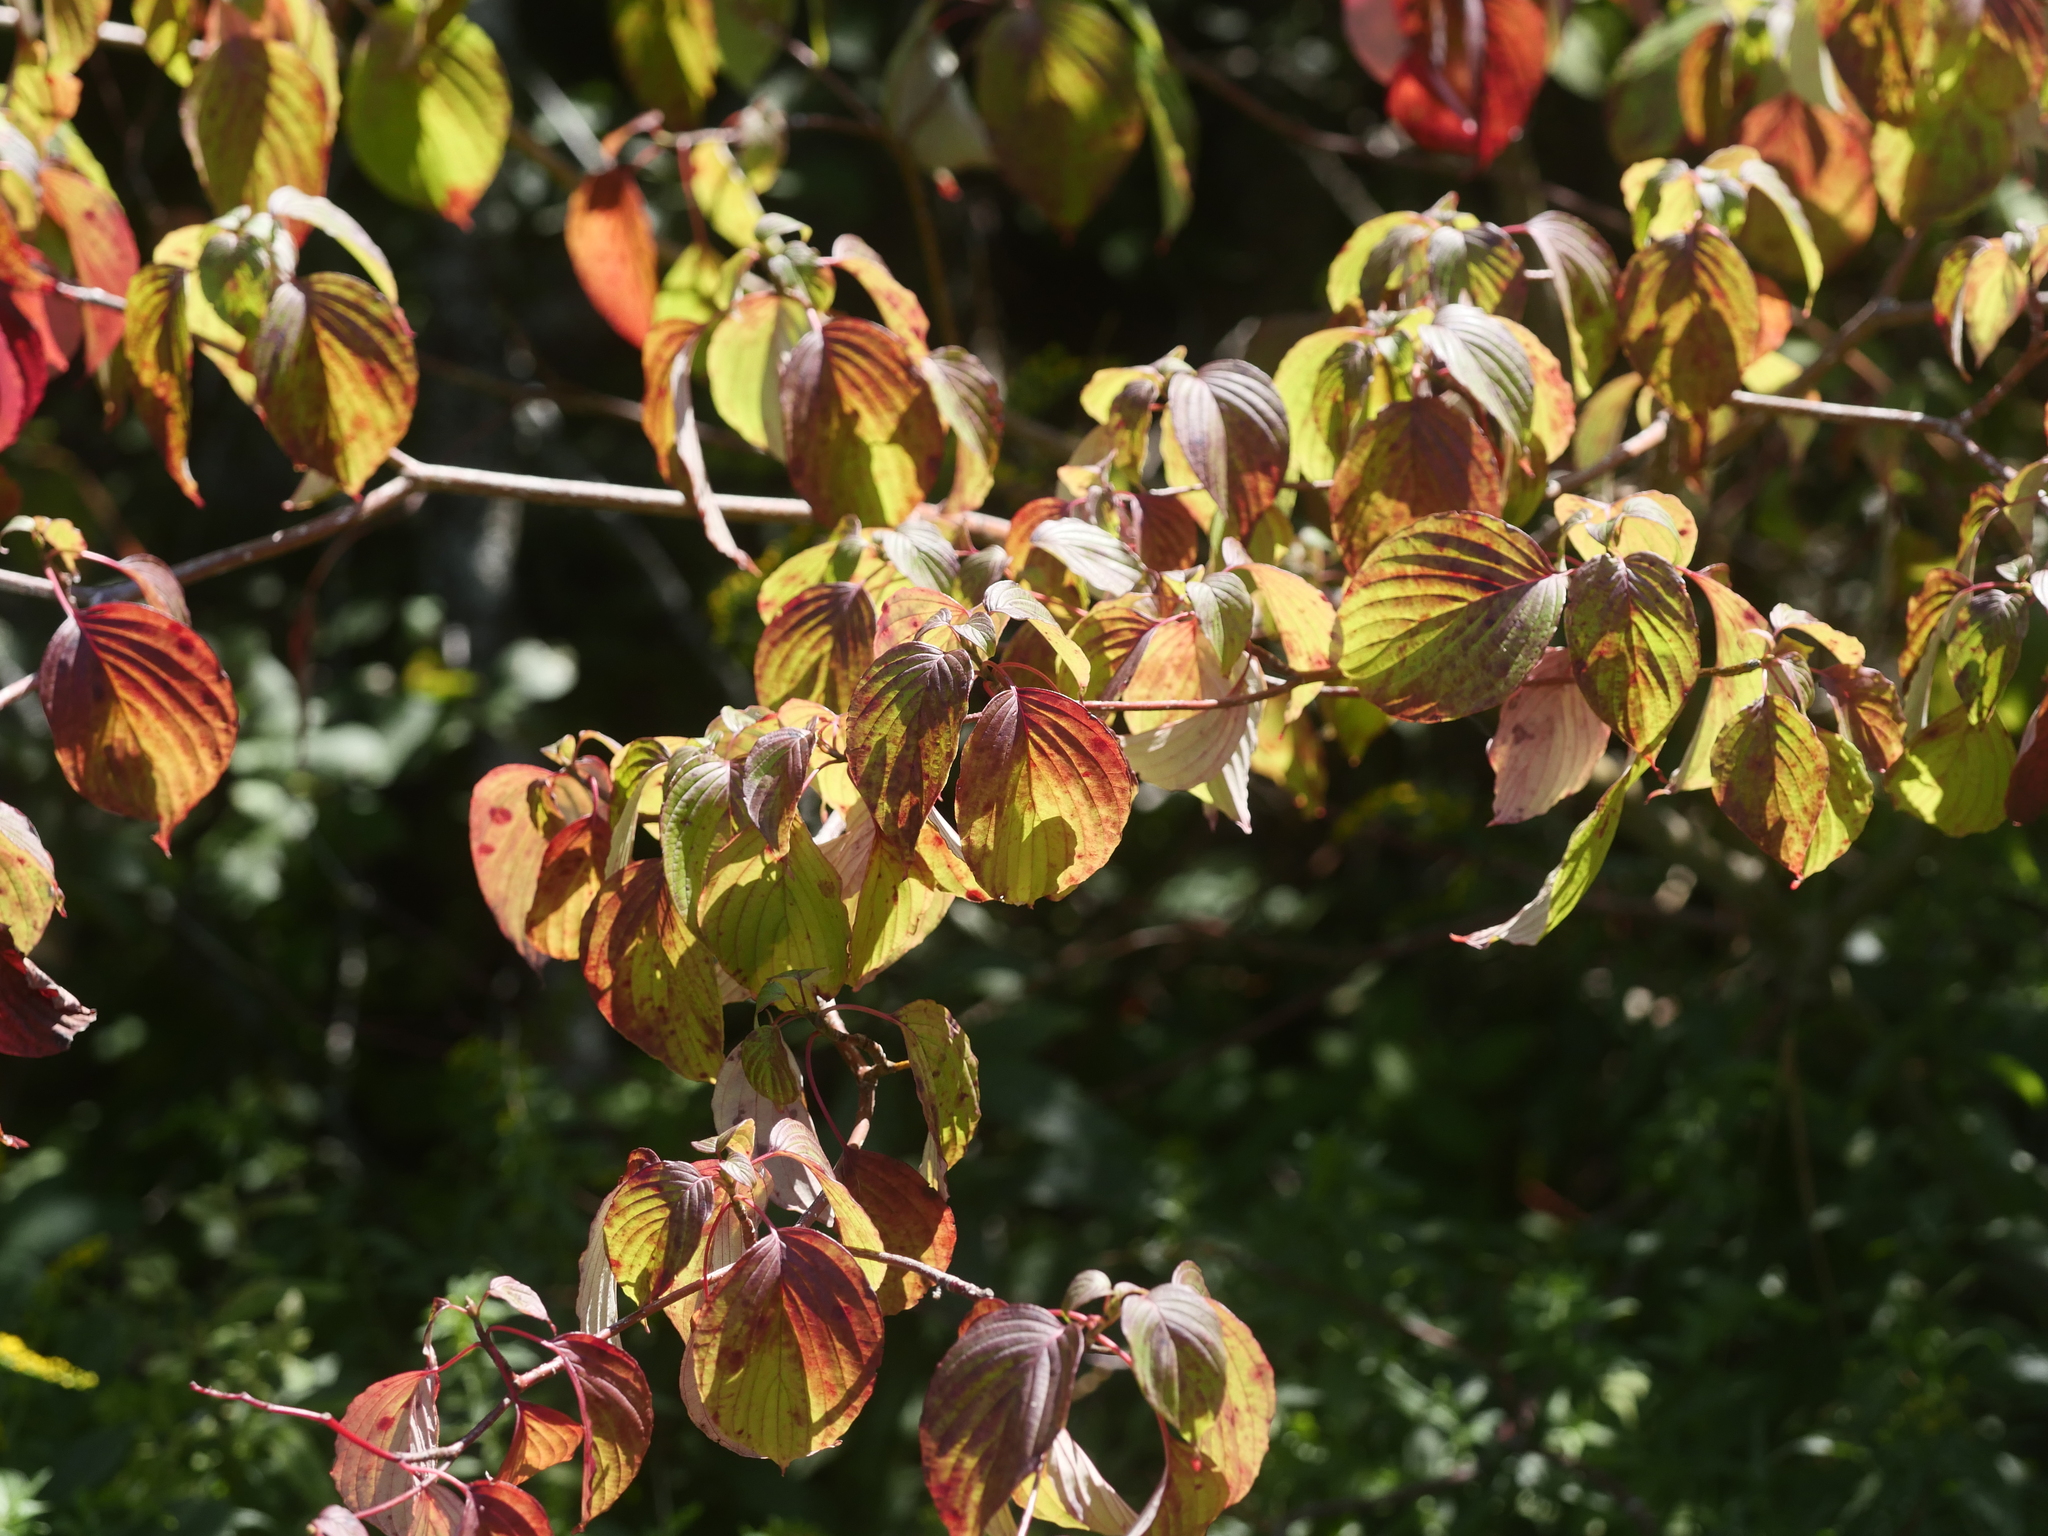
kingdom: Plantae
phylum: Tracheophyta
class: Magnoliopsida
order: Cornales
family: Cornaceae
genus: Cornus
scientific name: Cornus alternifolia
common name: Pagoda dogwood
